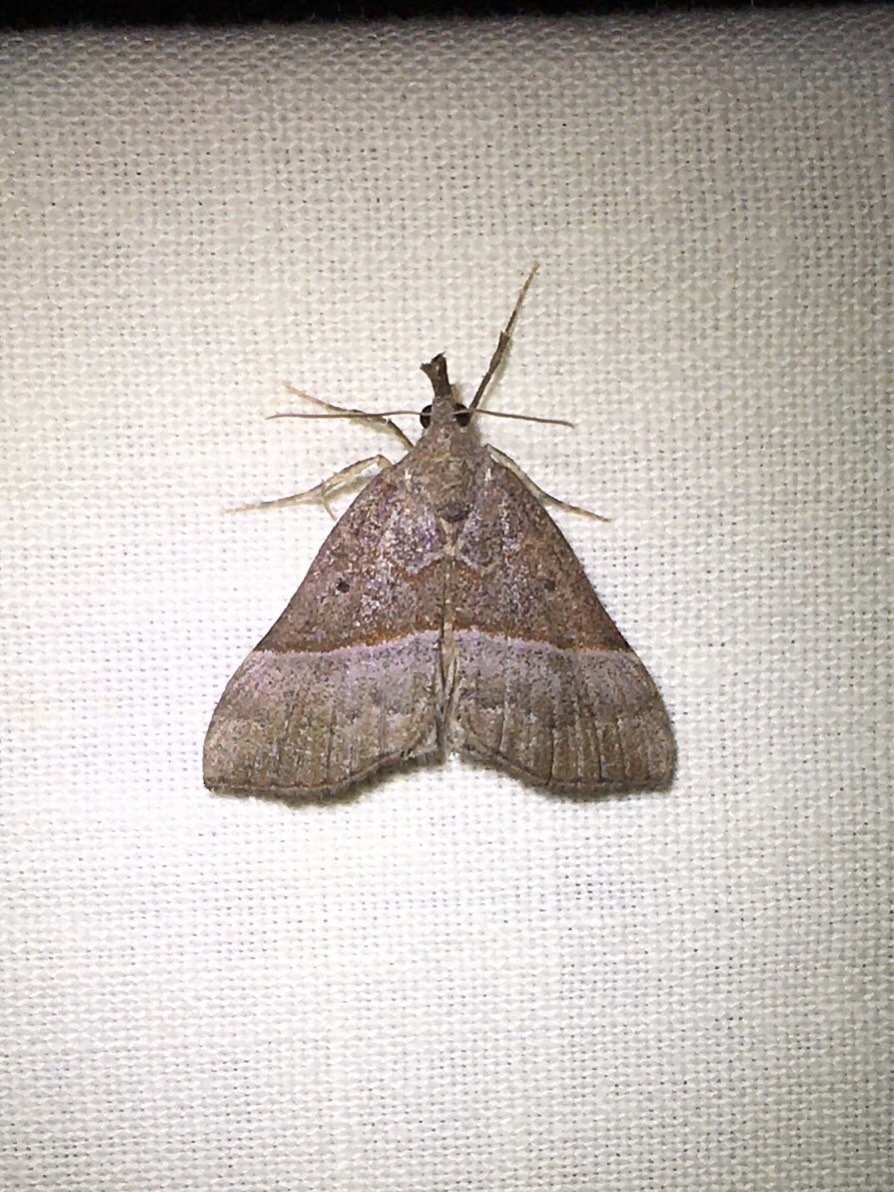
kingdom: Animalia
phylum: Arthropoda
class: Insecta
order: Lepidoptera
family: Erebidae
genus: Hypena
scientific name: Hypena eductalis
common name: Red-footed snout
